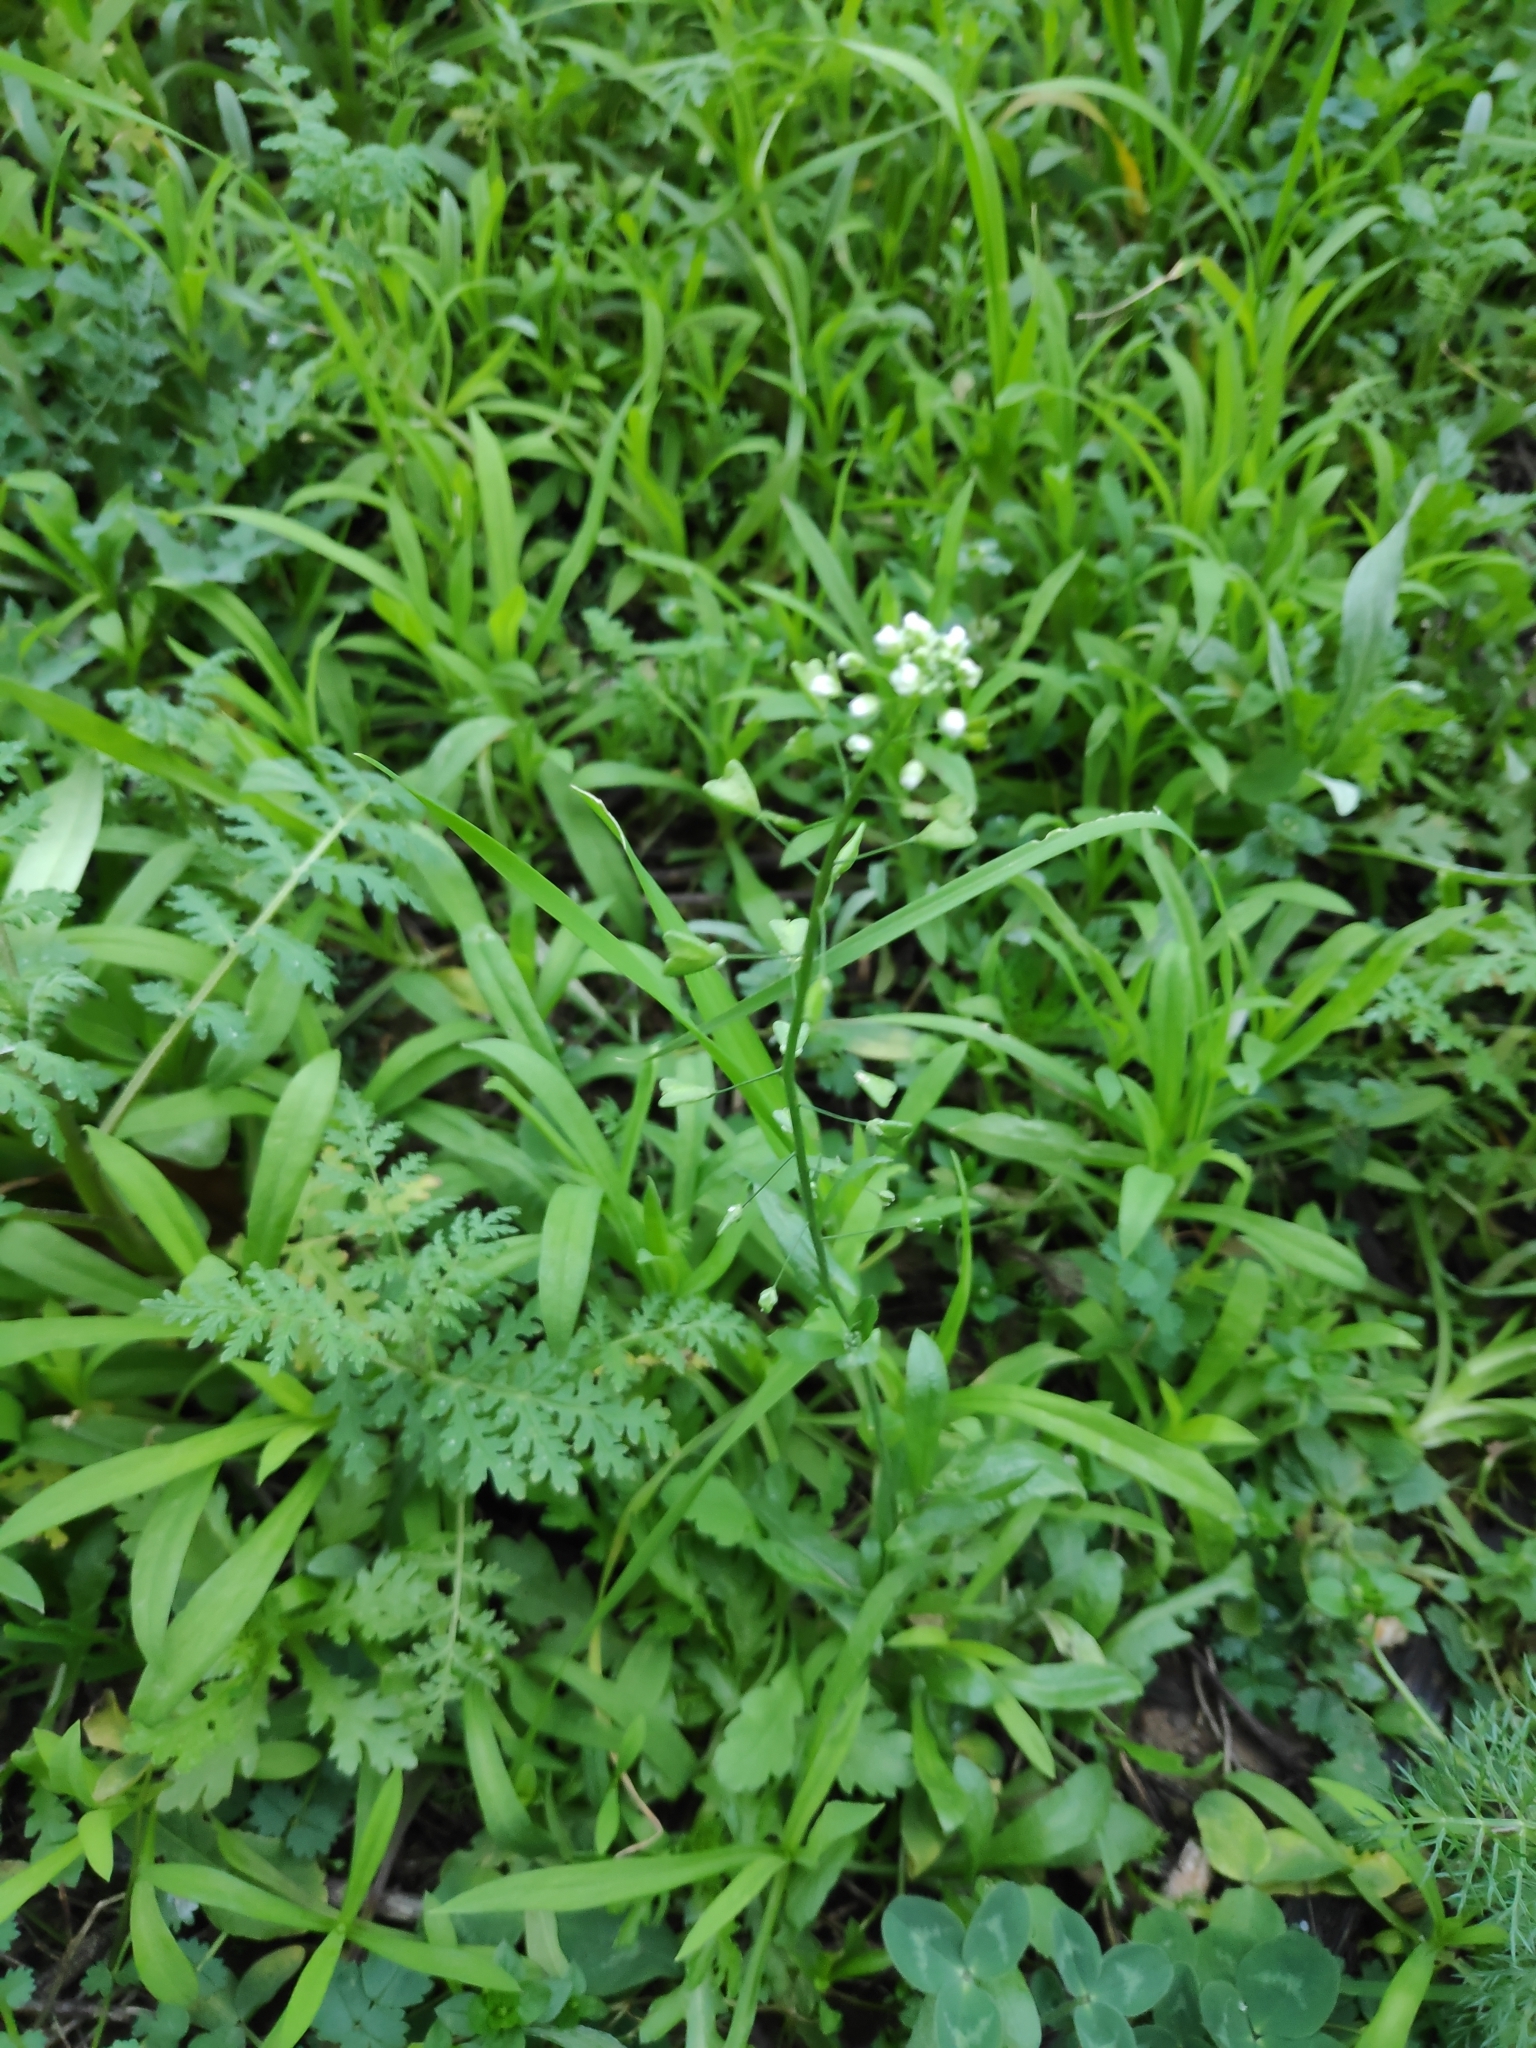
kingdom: Plantae
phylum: Tracheophyta
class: Magnoliopsida
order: Brassicales
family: Brassicaceae
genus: Capsella
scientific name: Capsella bursa-pastoris
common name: Shepherd's purse
